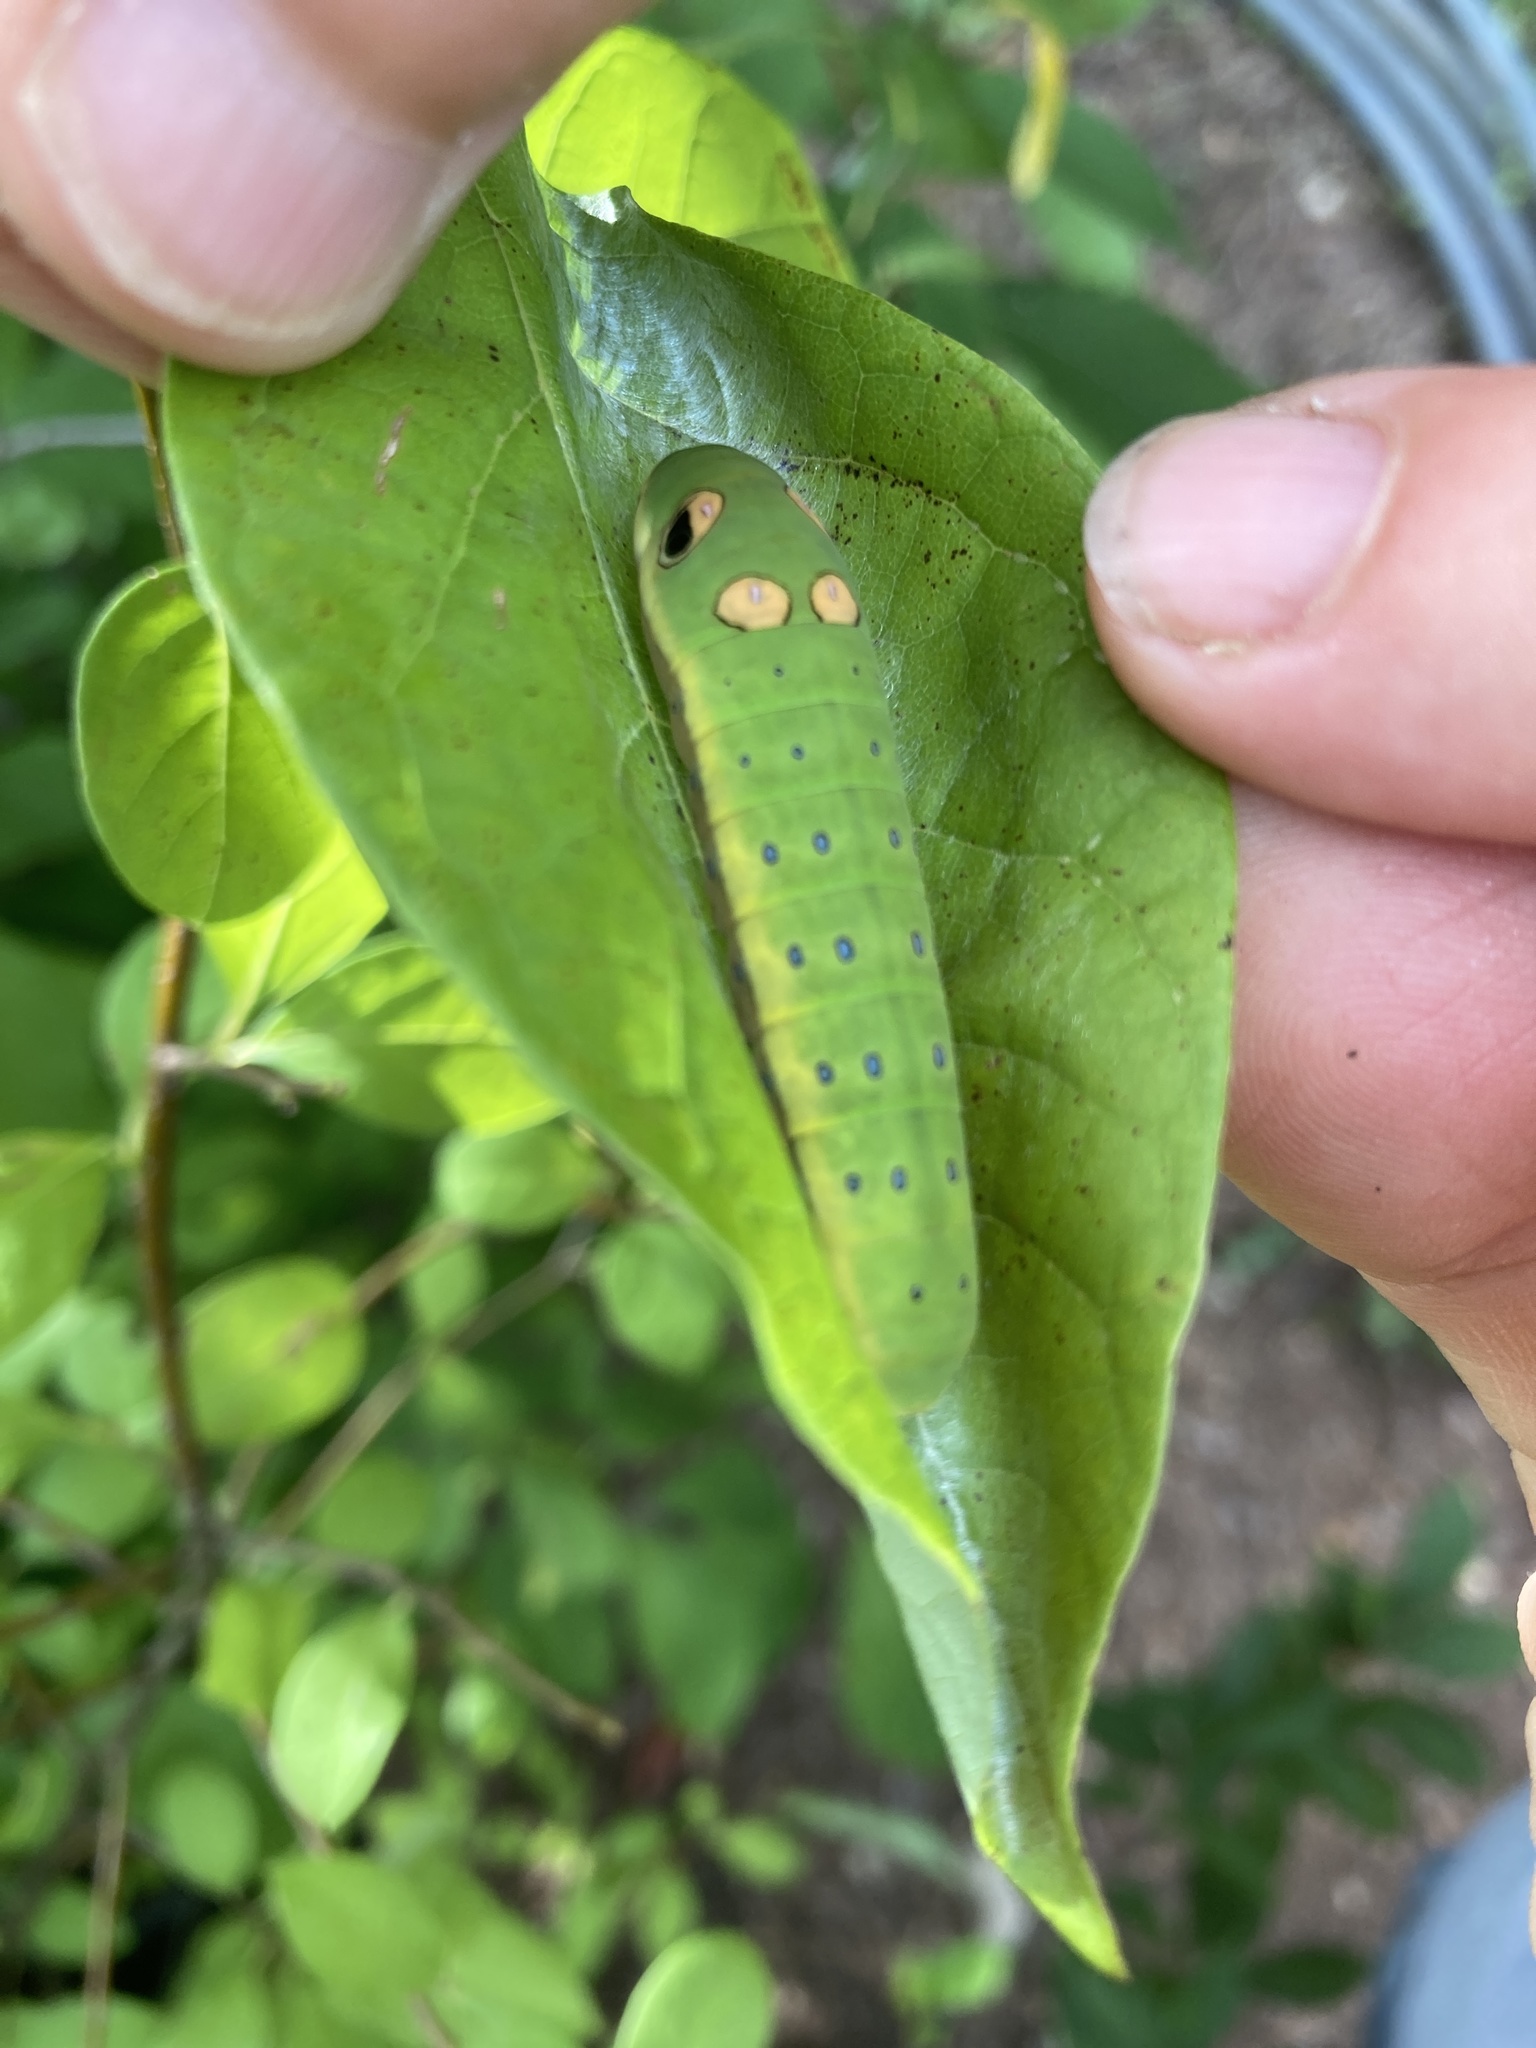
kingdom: Animalia
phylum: Arthropoda
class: Insecta
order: Lepidoptera
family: Papilionidae
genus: Papilio
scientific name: Papilio troilus
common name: Spicebush swallowtail
